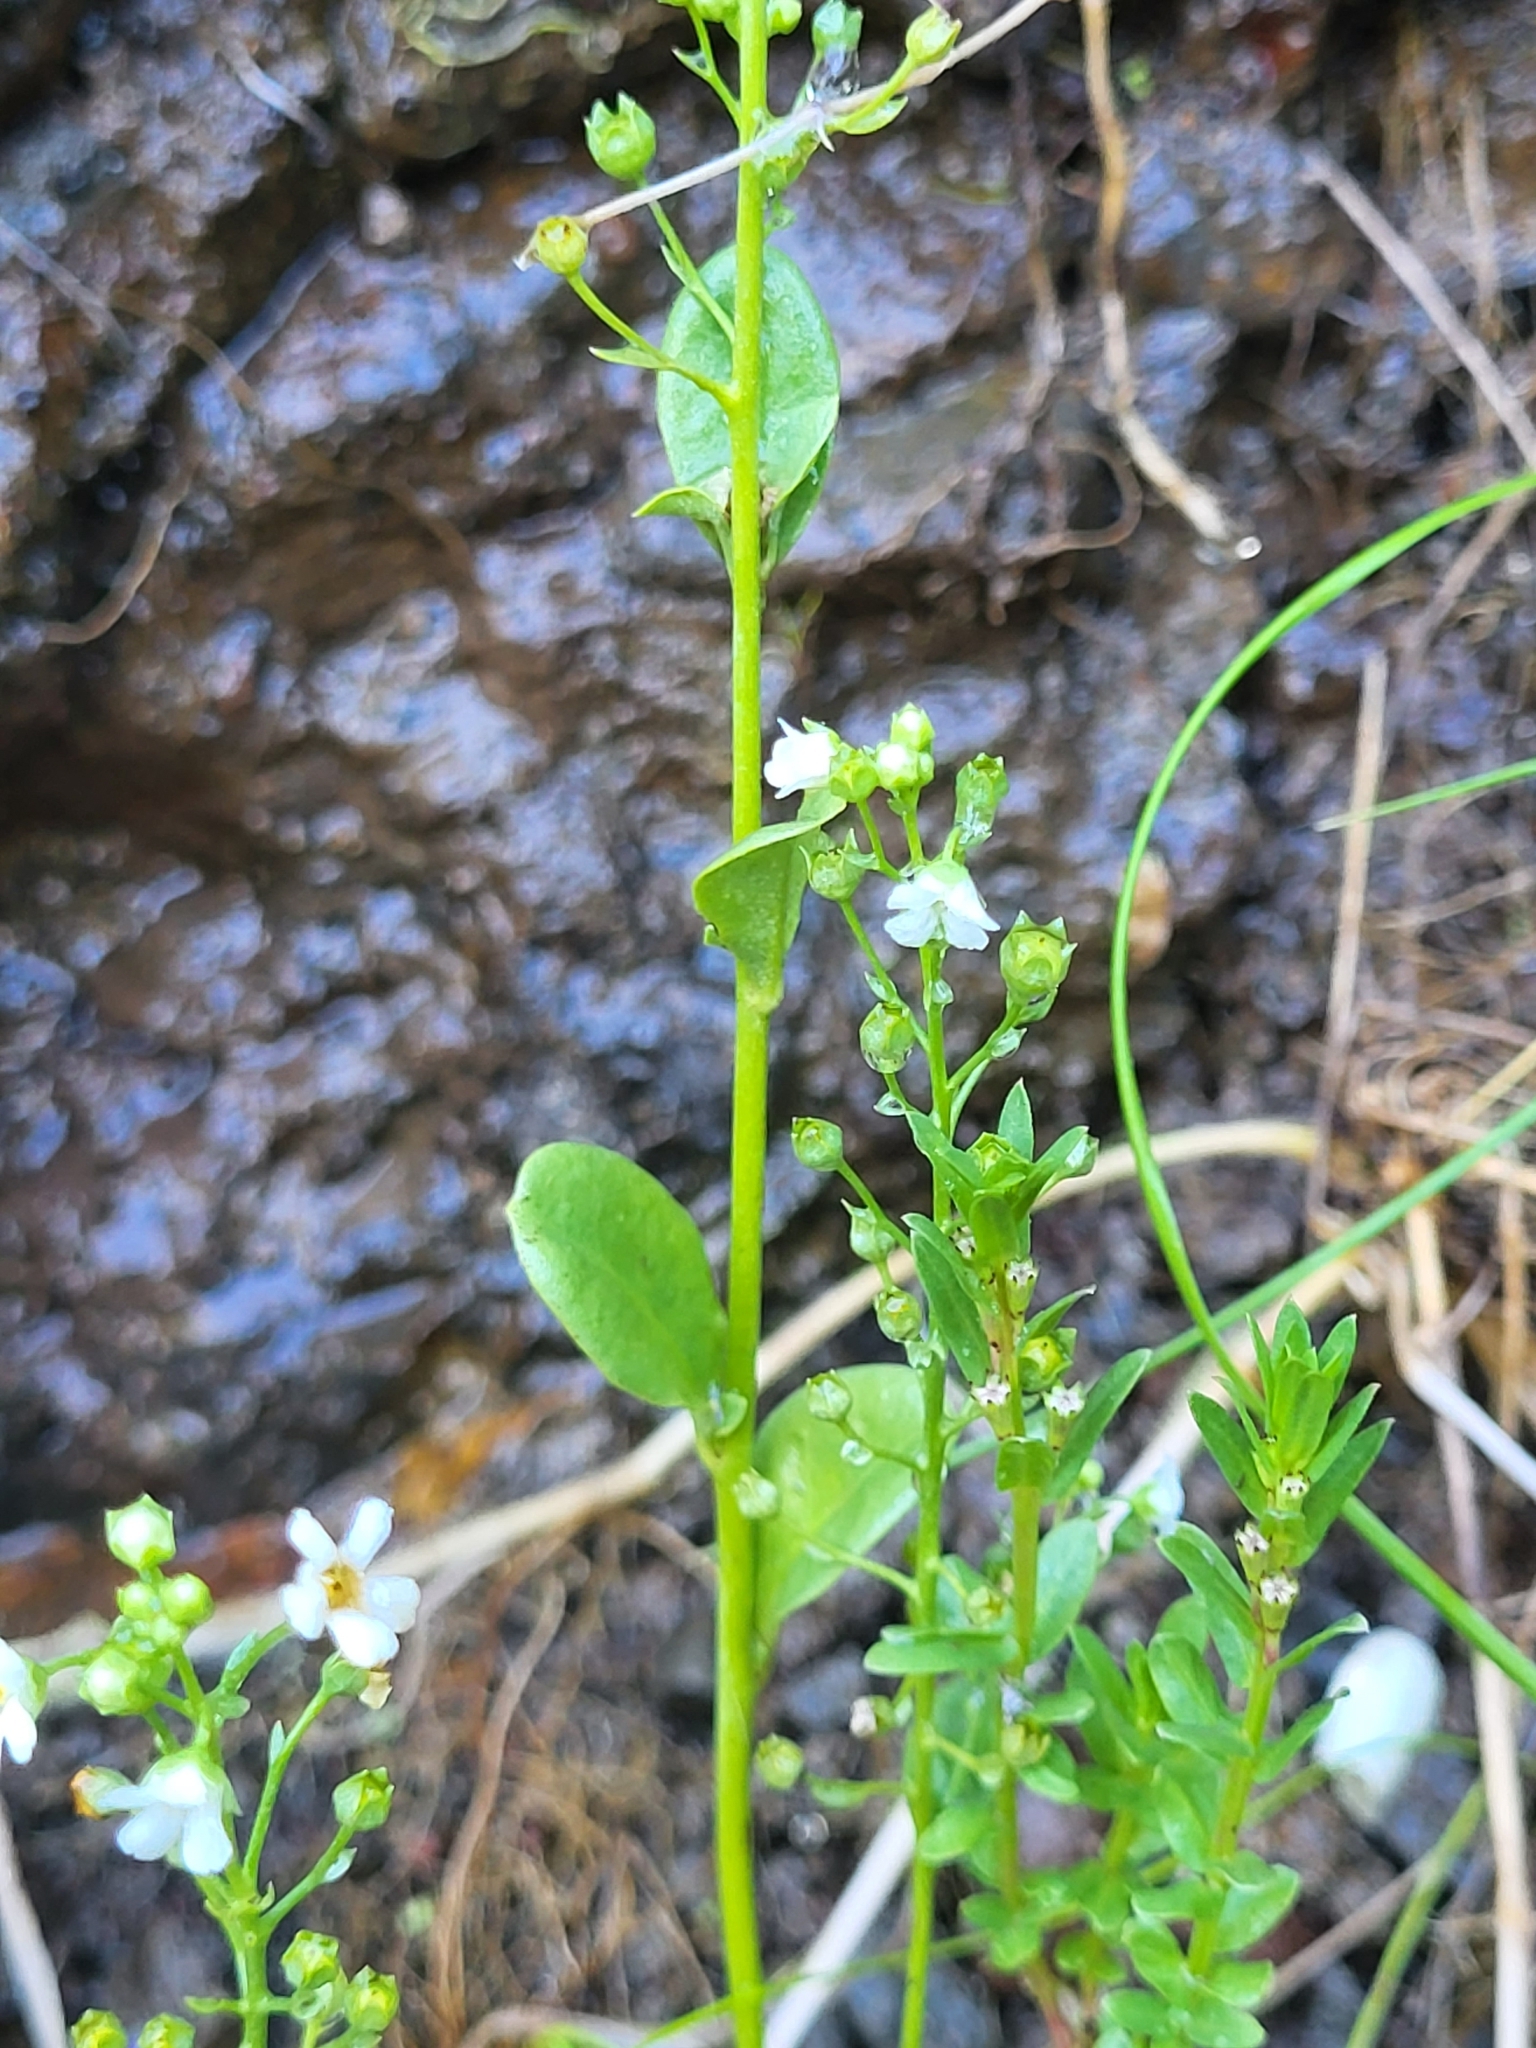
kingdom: Plantae
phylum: Tracheophyta
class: Magnoliopsida
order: Ericales
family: Primulaceae
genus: Samolus
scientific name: Samolus valerandi
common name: Brookweed
